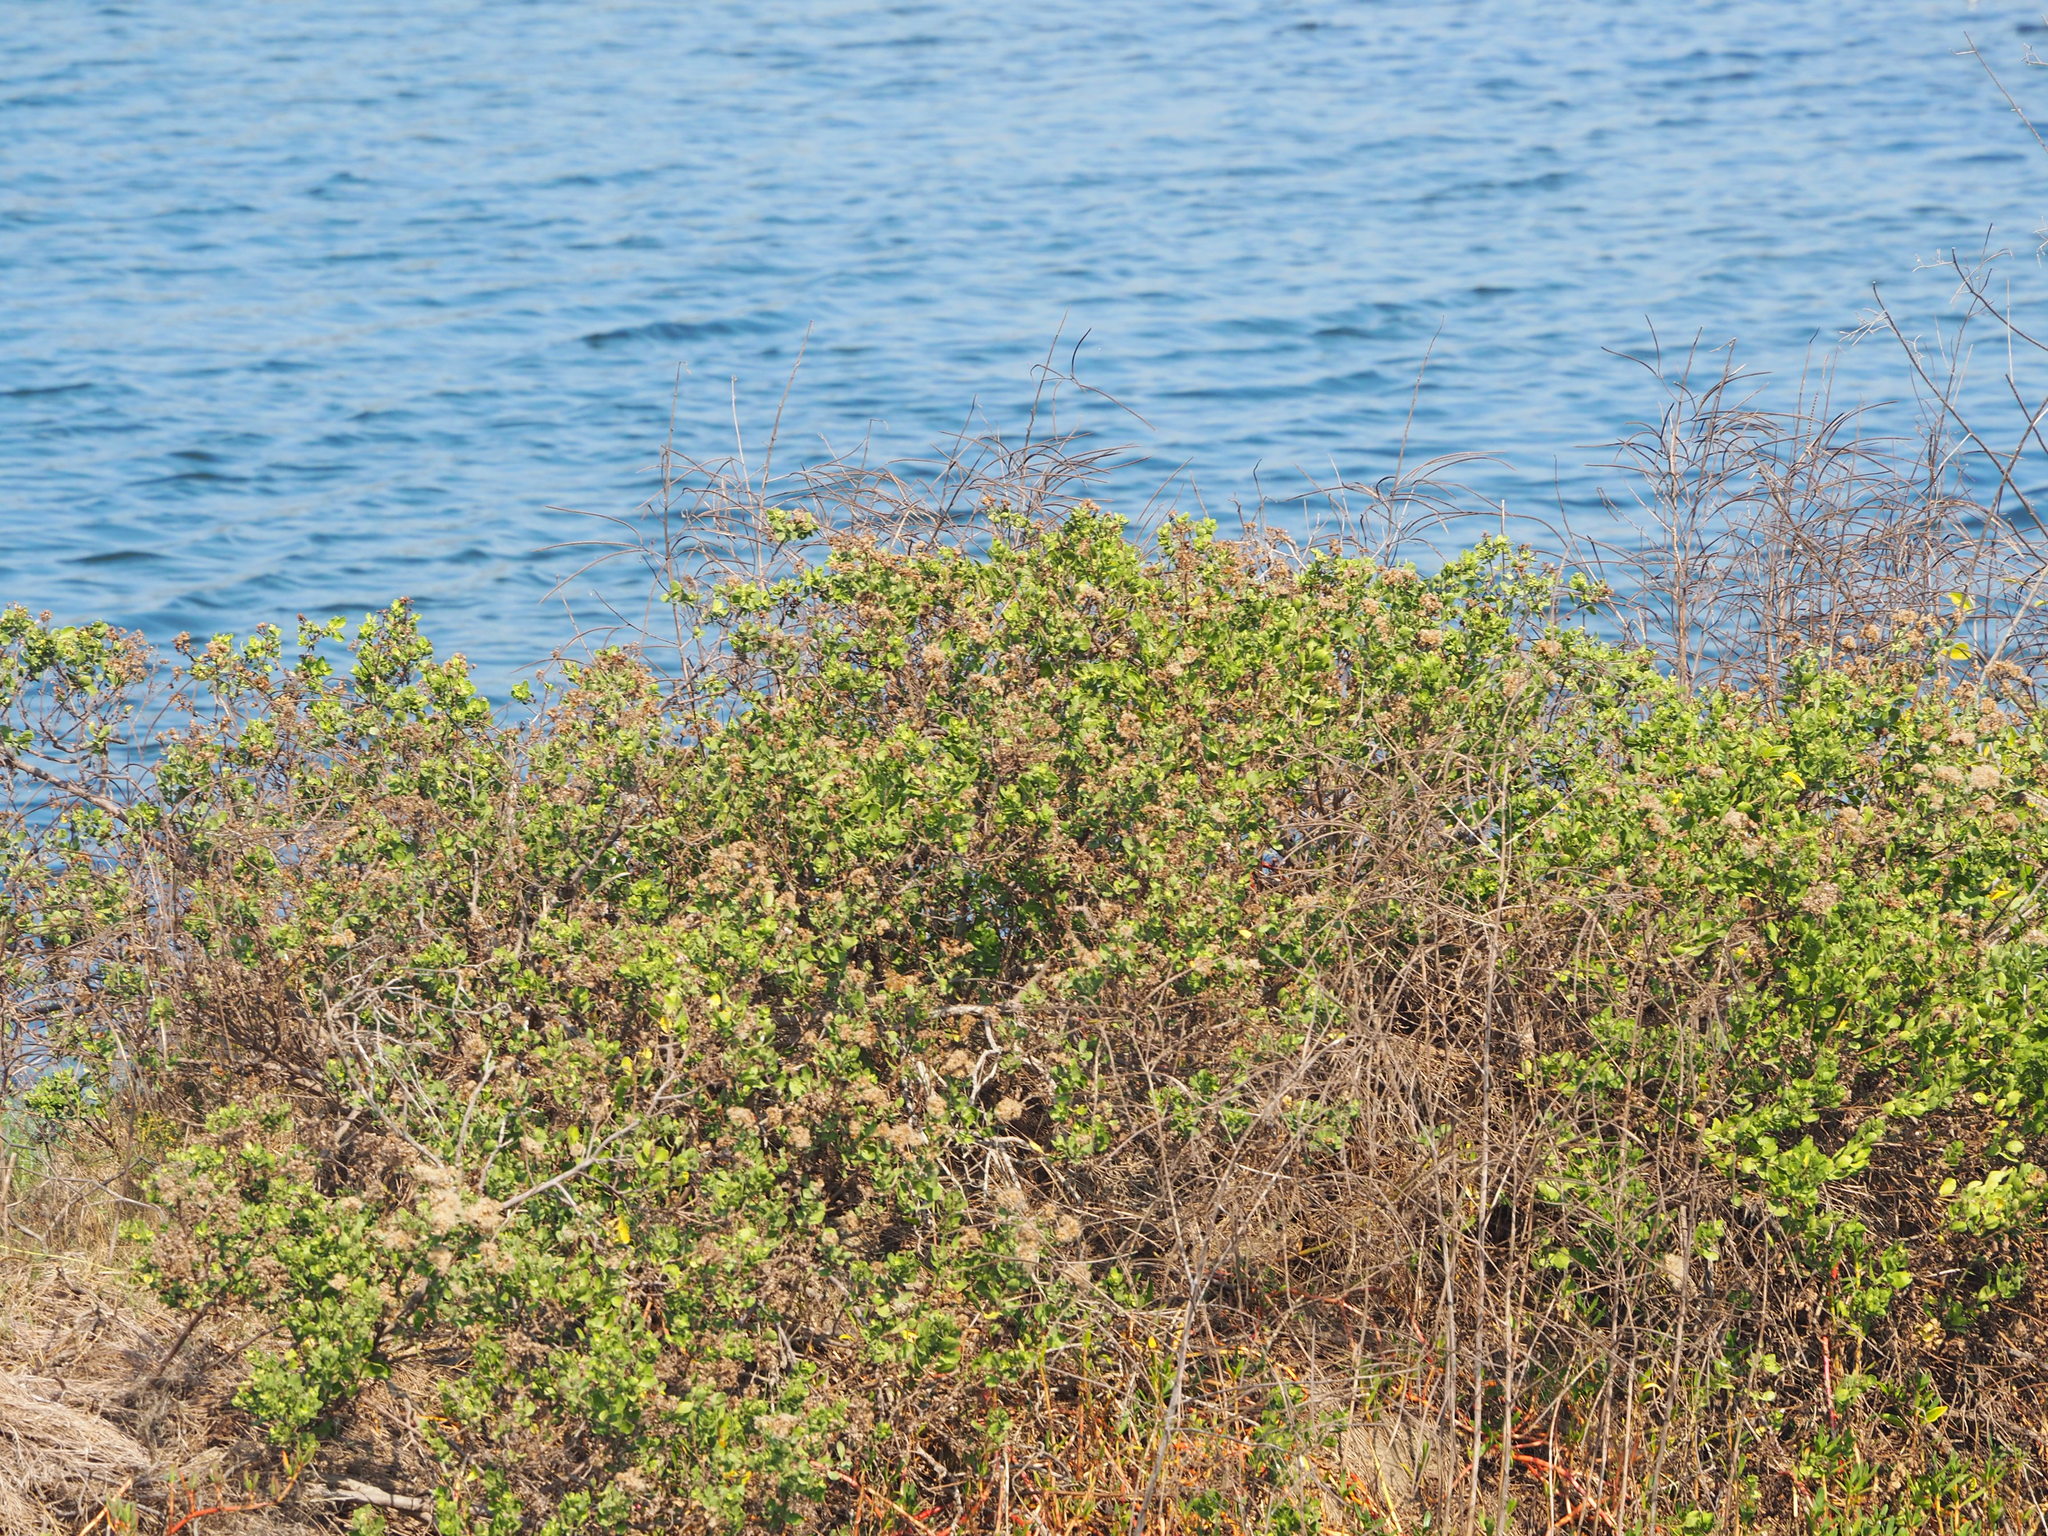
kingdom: Plantae
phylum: Tracheophyta
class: Magnoliopsida
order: Asterales
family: Asteraceae
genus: Pluchea
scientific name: Pluchea indica
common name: Indian fleabane
